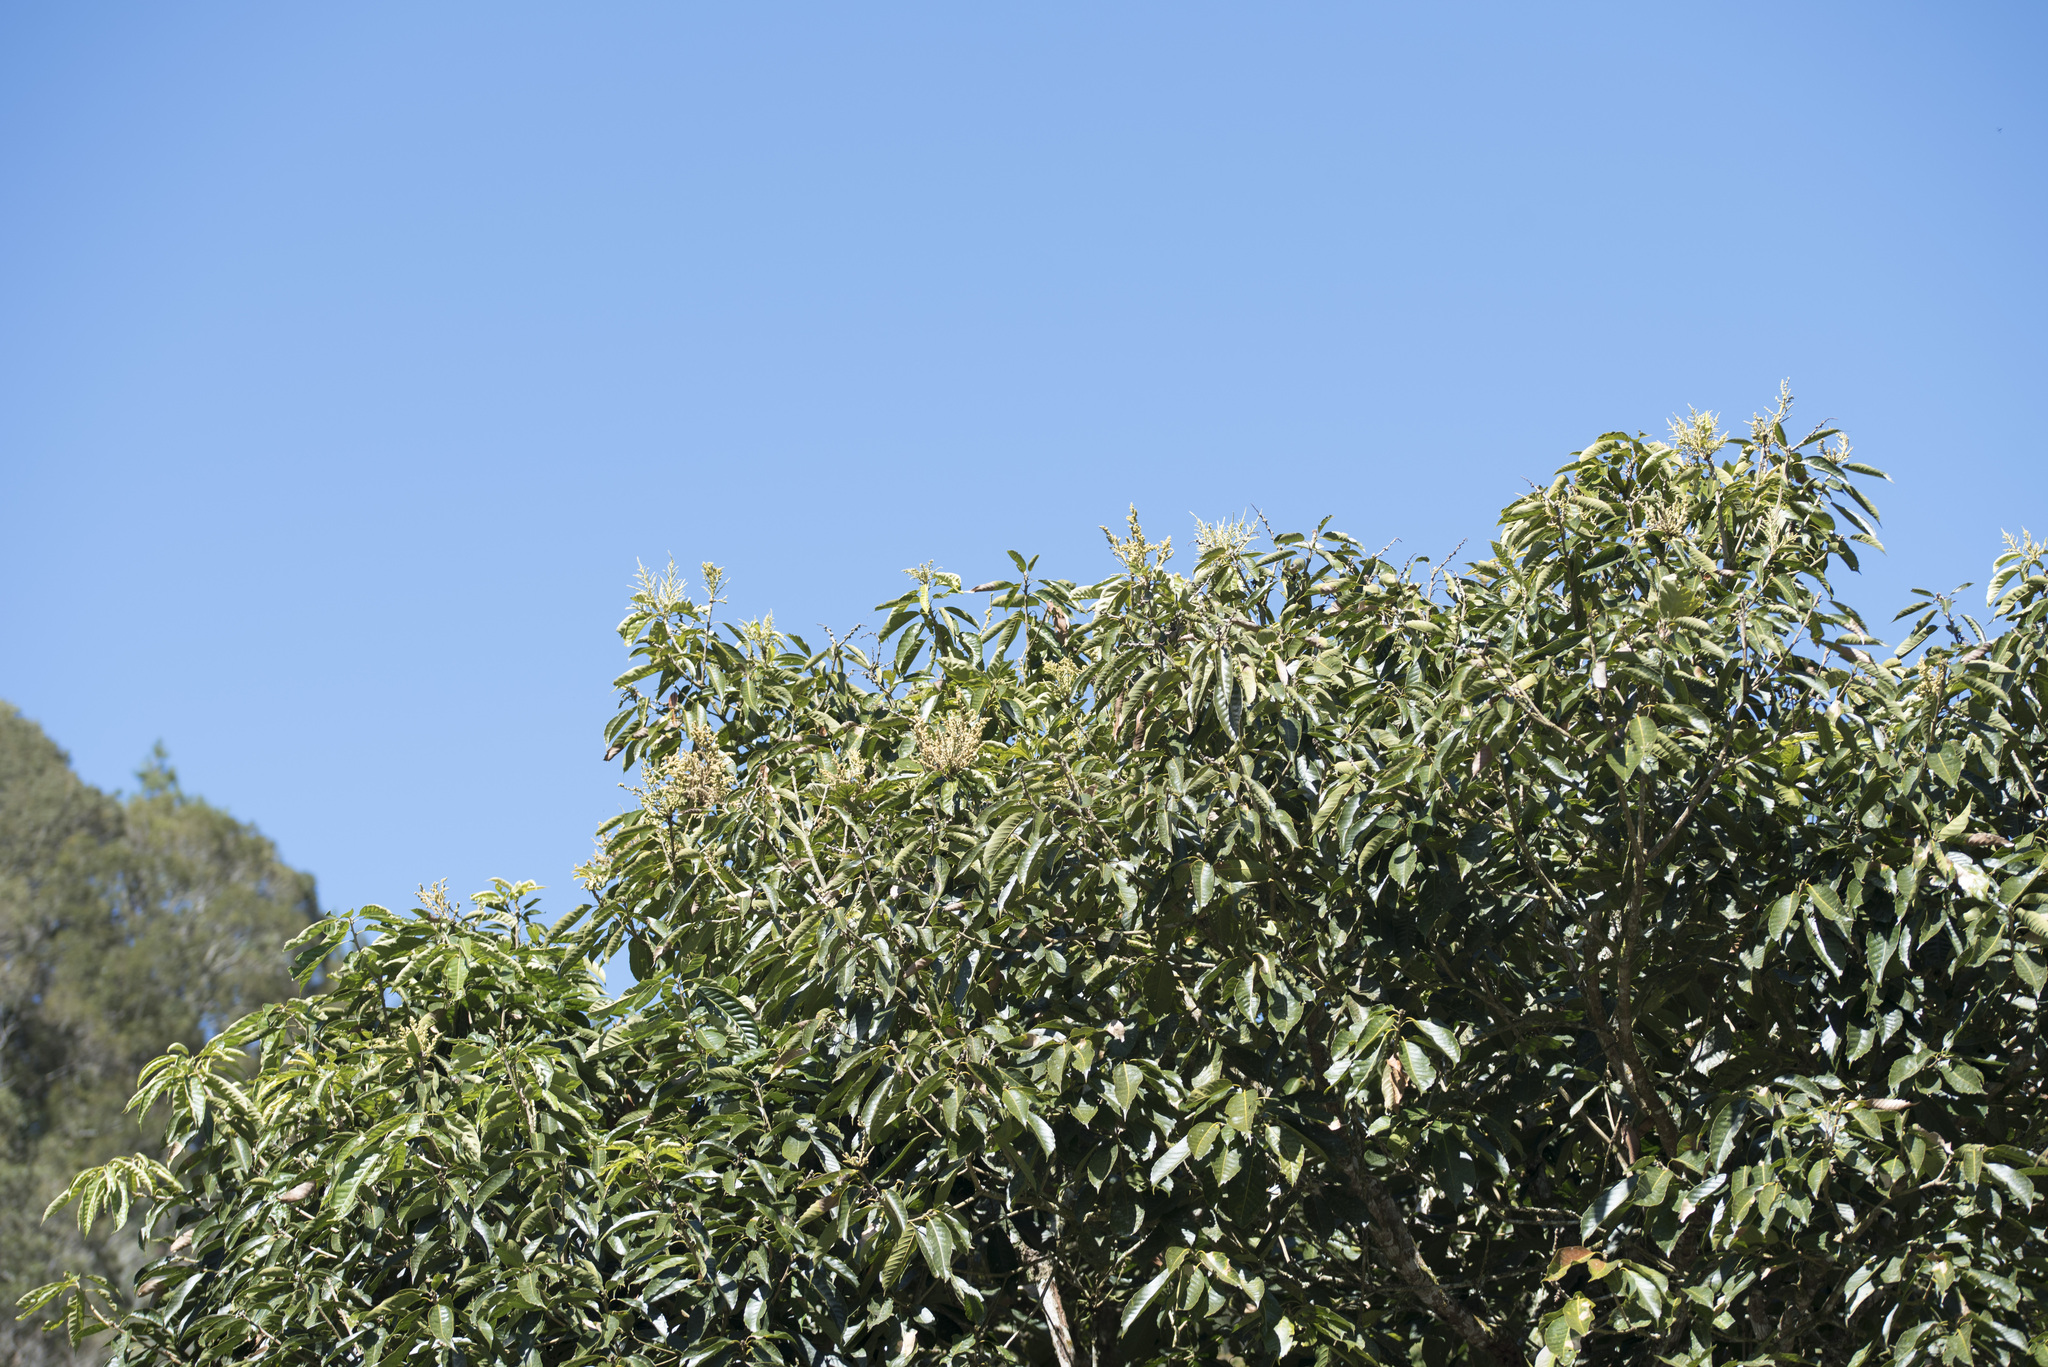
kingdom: Plantae
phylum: Tracheophyta
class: Magnoliopsida
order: Fagales
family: Fagaceae
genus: Lithocarpus
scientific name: Lithocarpus kawakamii
